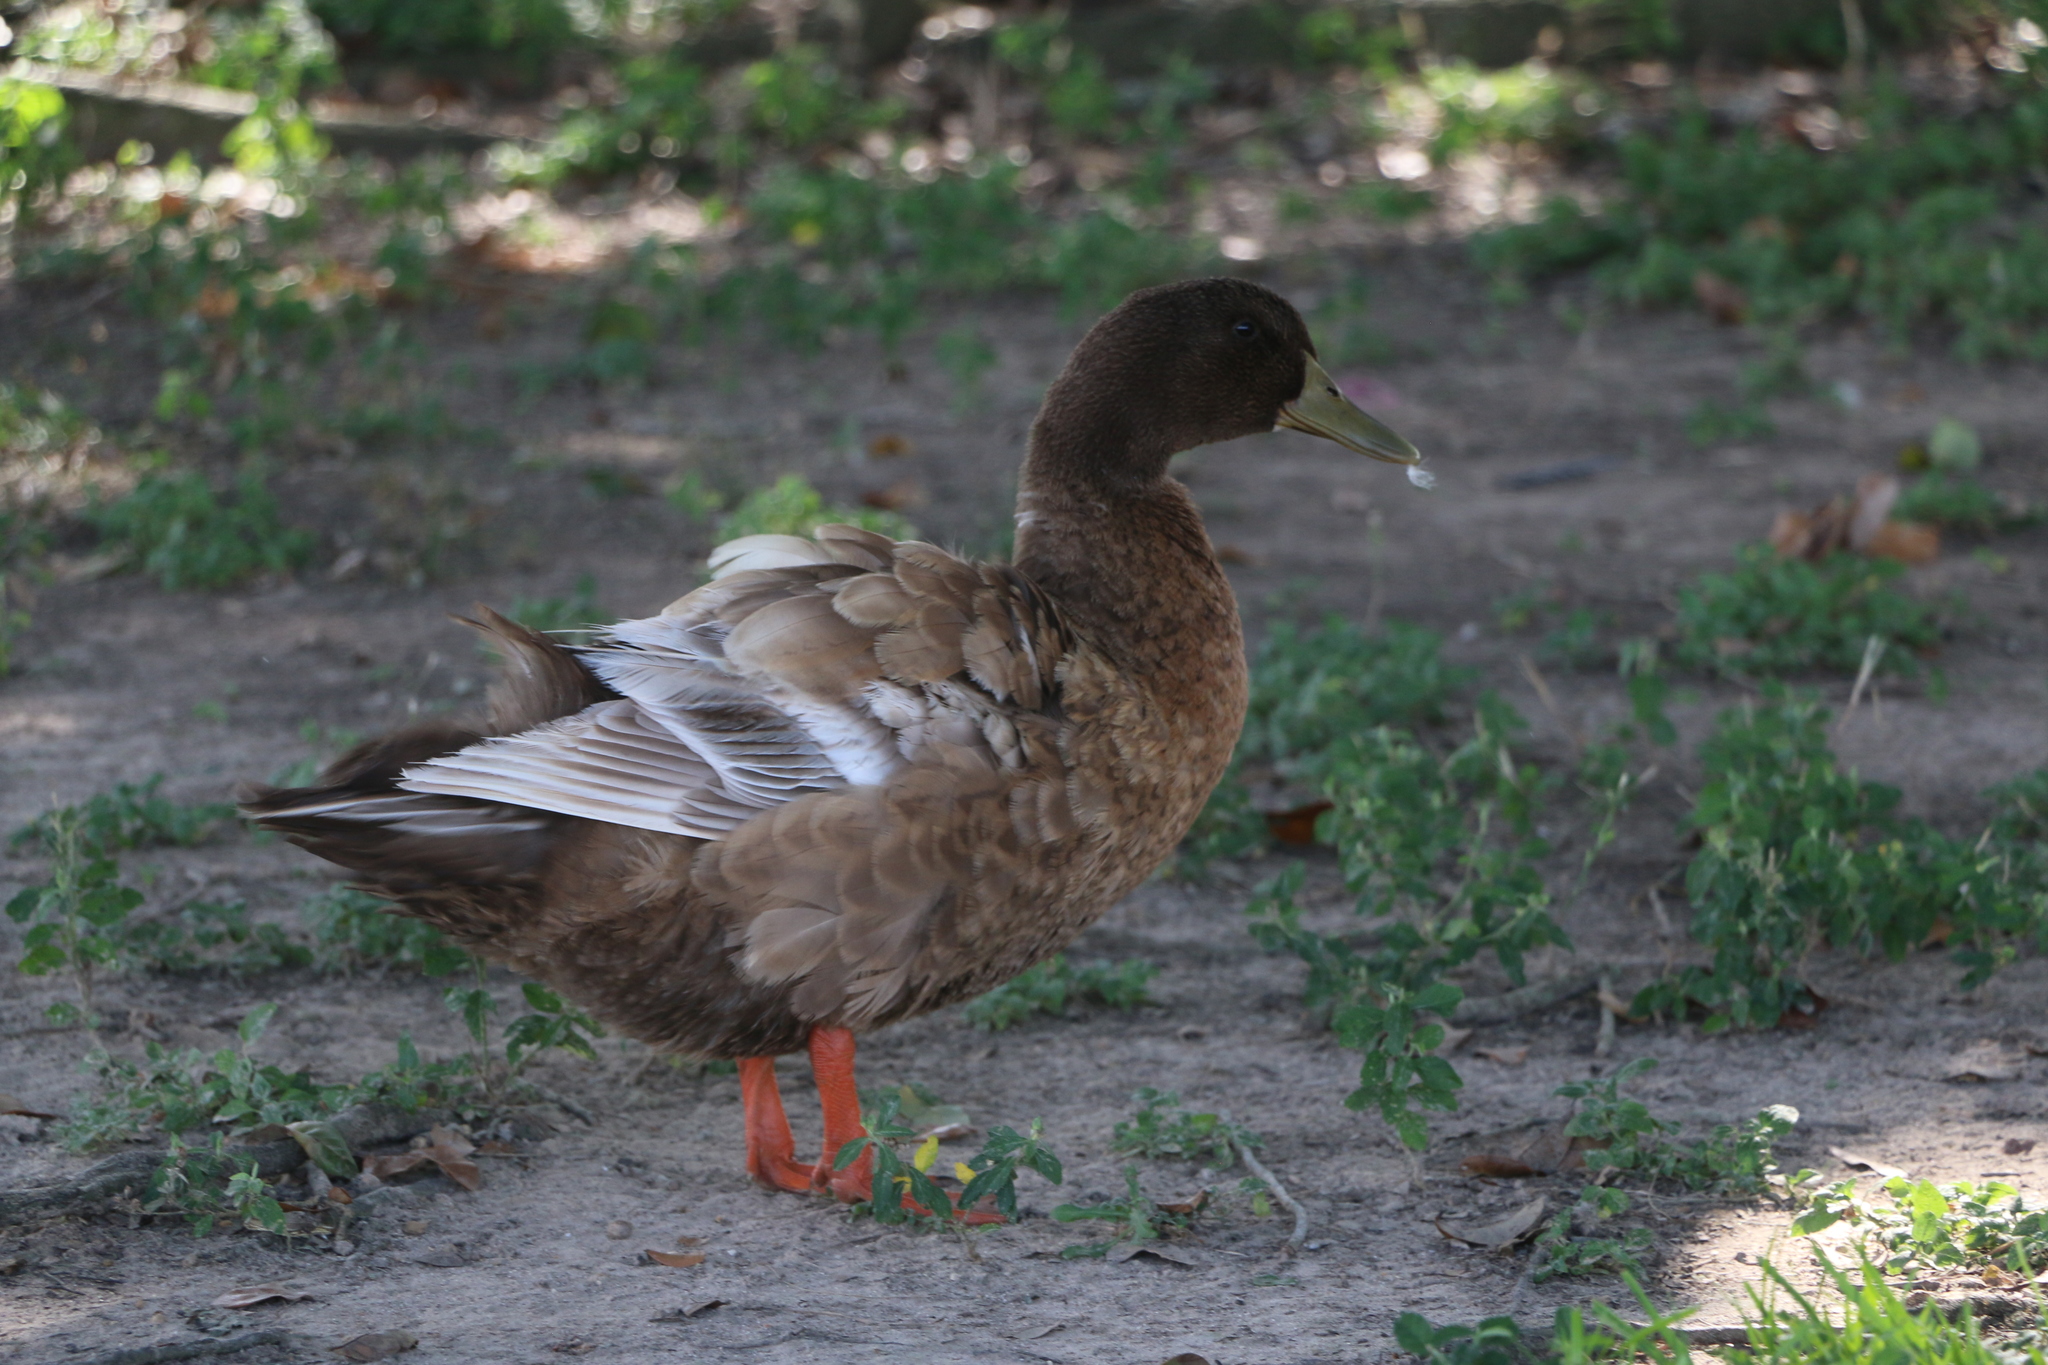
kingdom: Animalia
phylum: Chordata
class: Aves
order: Anseriformes
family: Anatidae
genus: Anas
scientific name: Anas platyrhynchos
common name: Mallard
